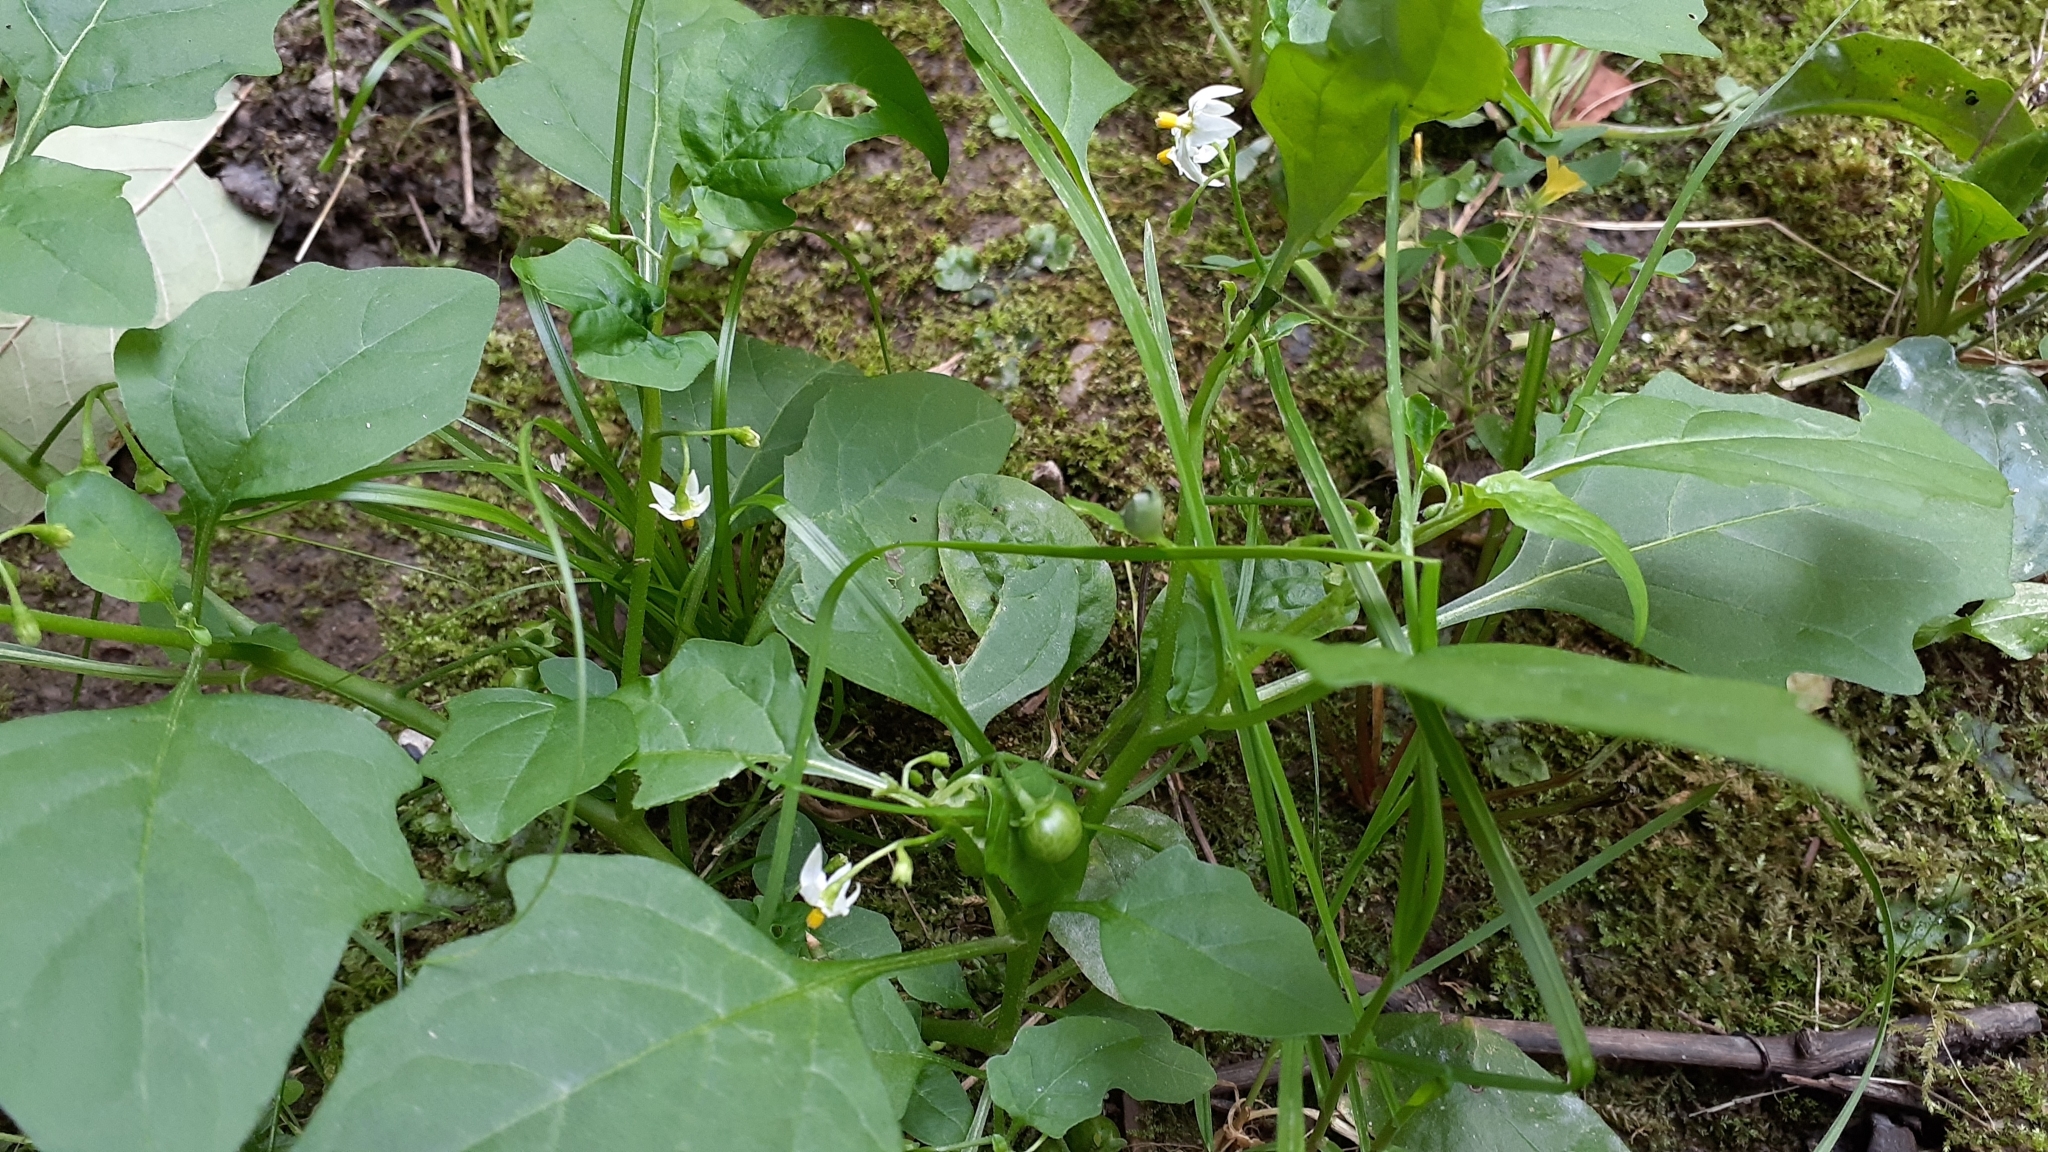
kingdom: Plantae
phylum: Tracheophyta
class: Magnoliopsida
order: Solanales
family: Solanaceae
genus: Solanum
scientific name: Solanum emulans
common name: Eastern black nightshade
